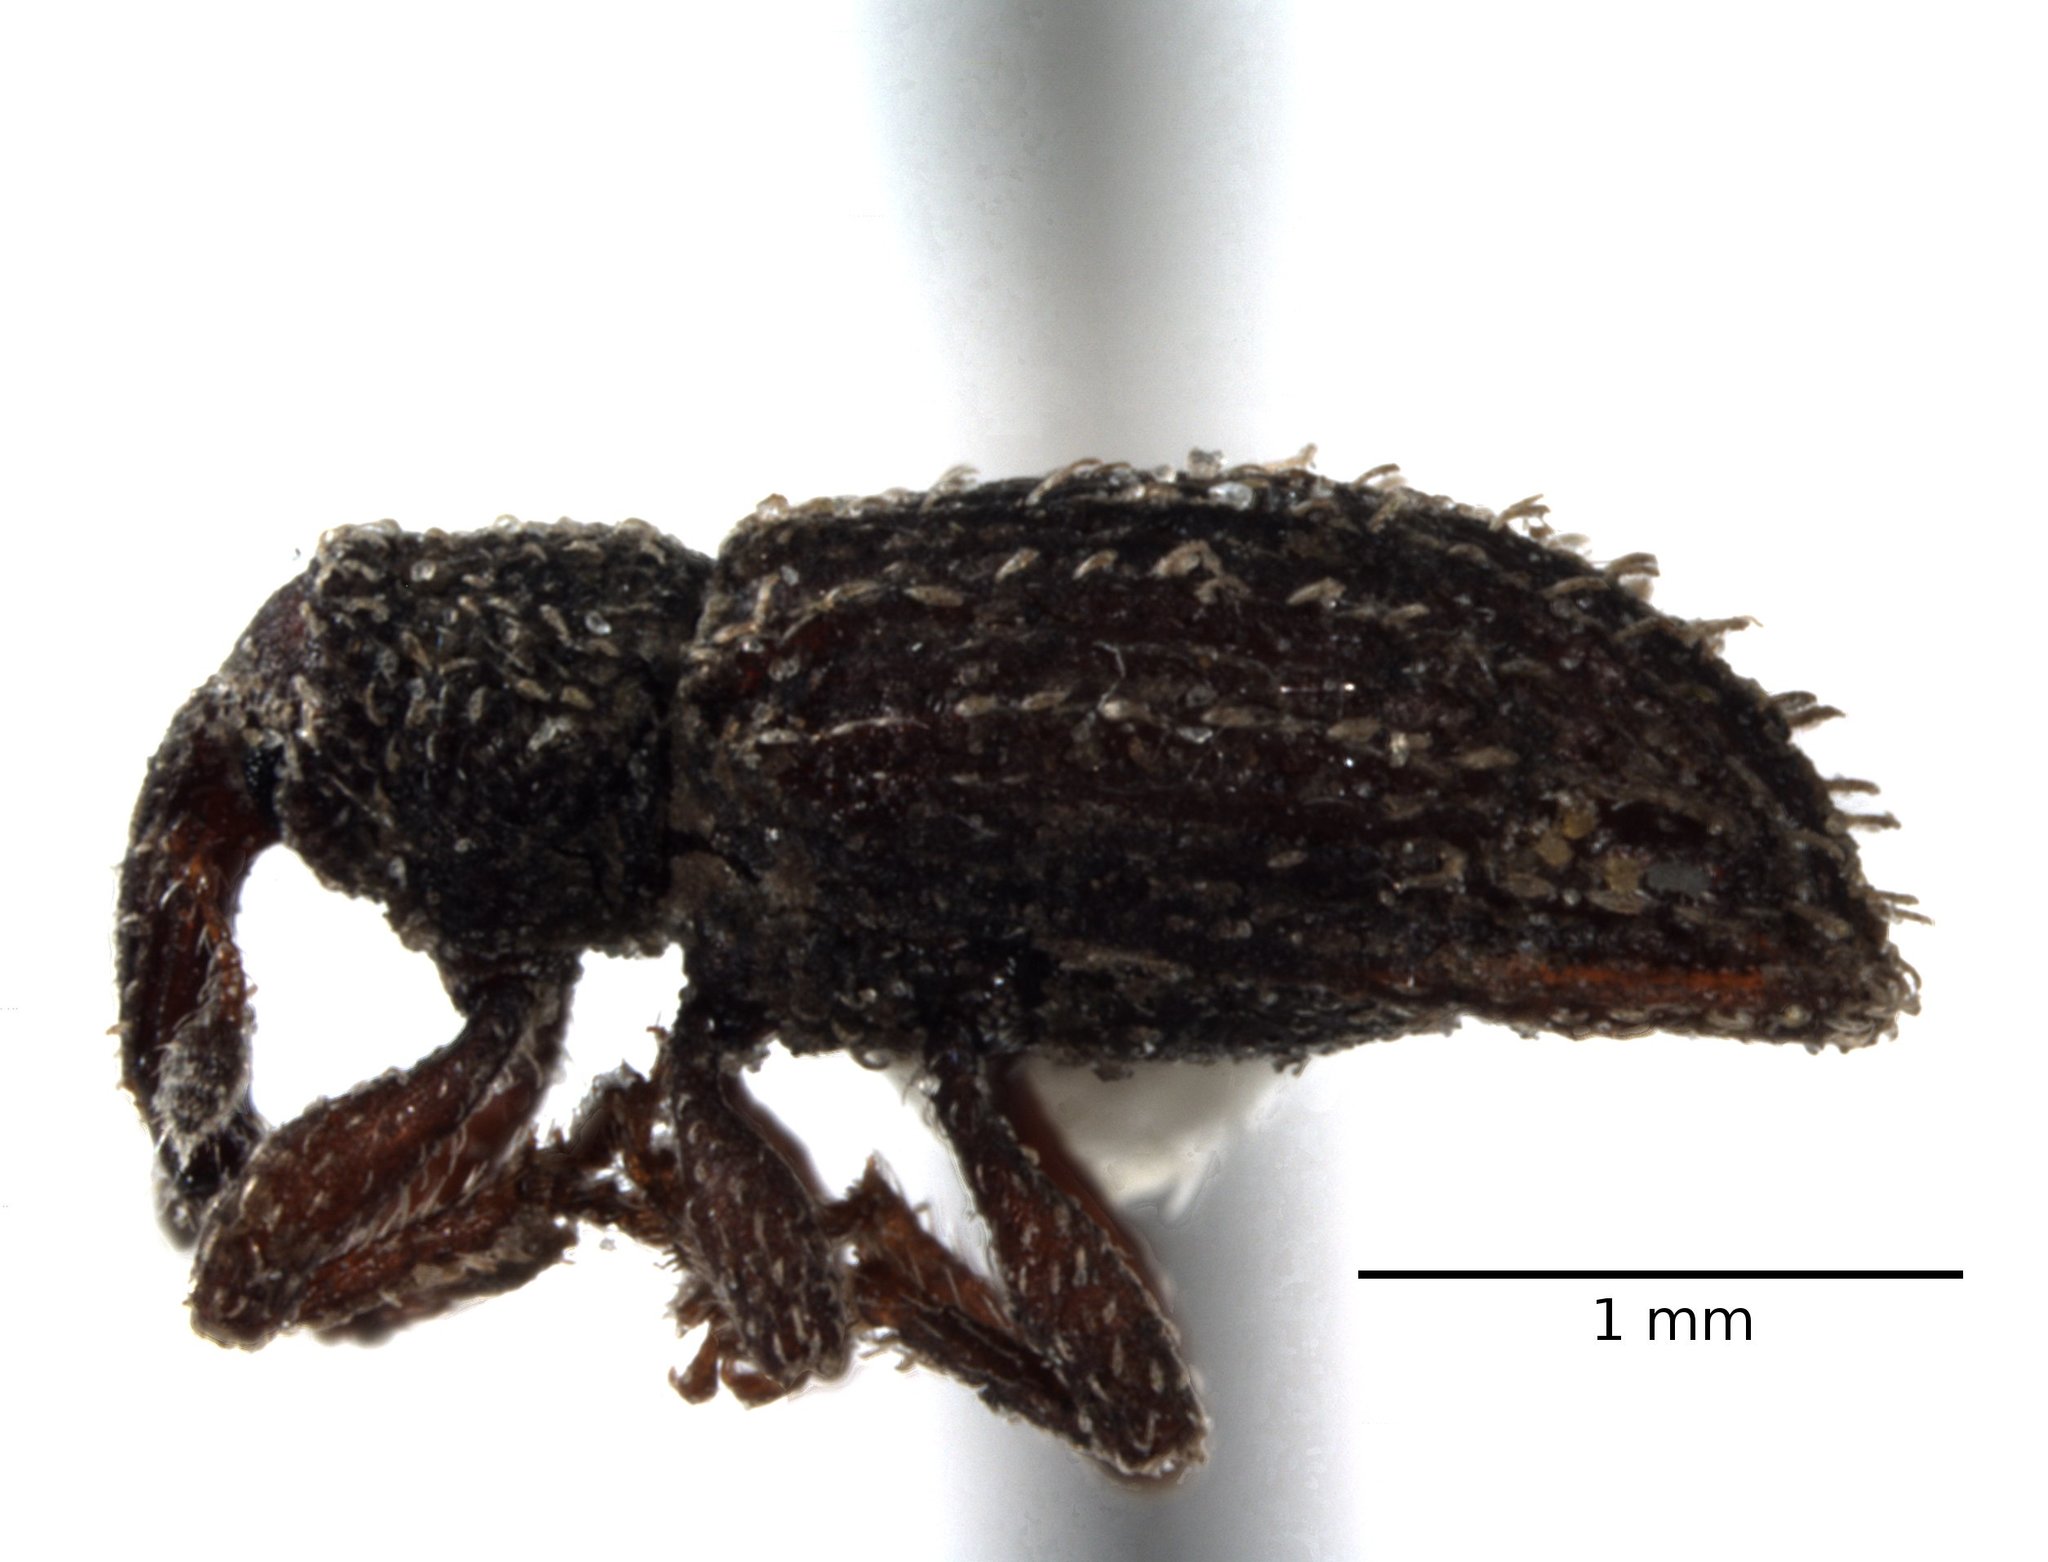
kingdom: Animalia
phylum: Arthropoda
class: Insecta
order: Coleoptera
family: Curculionidae
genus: Orthochaetes
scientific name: Orthochaetes setiger
